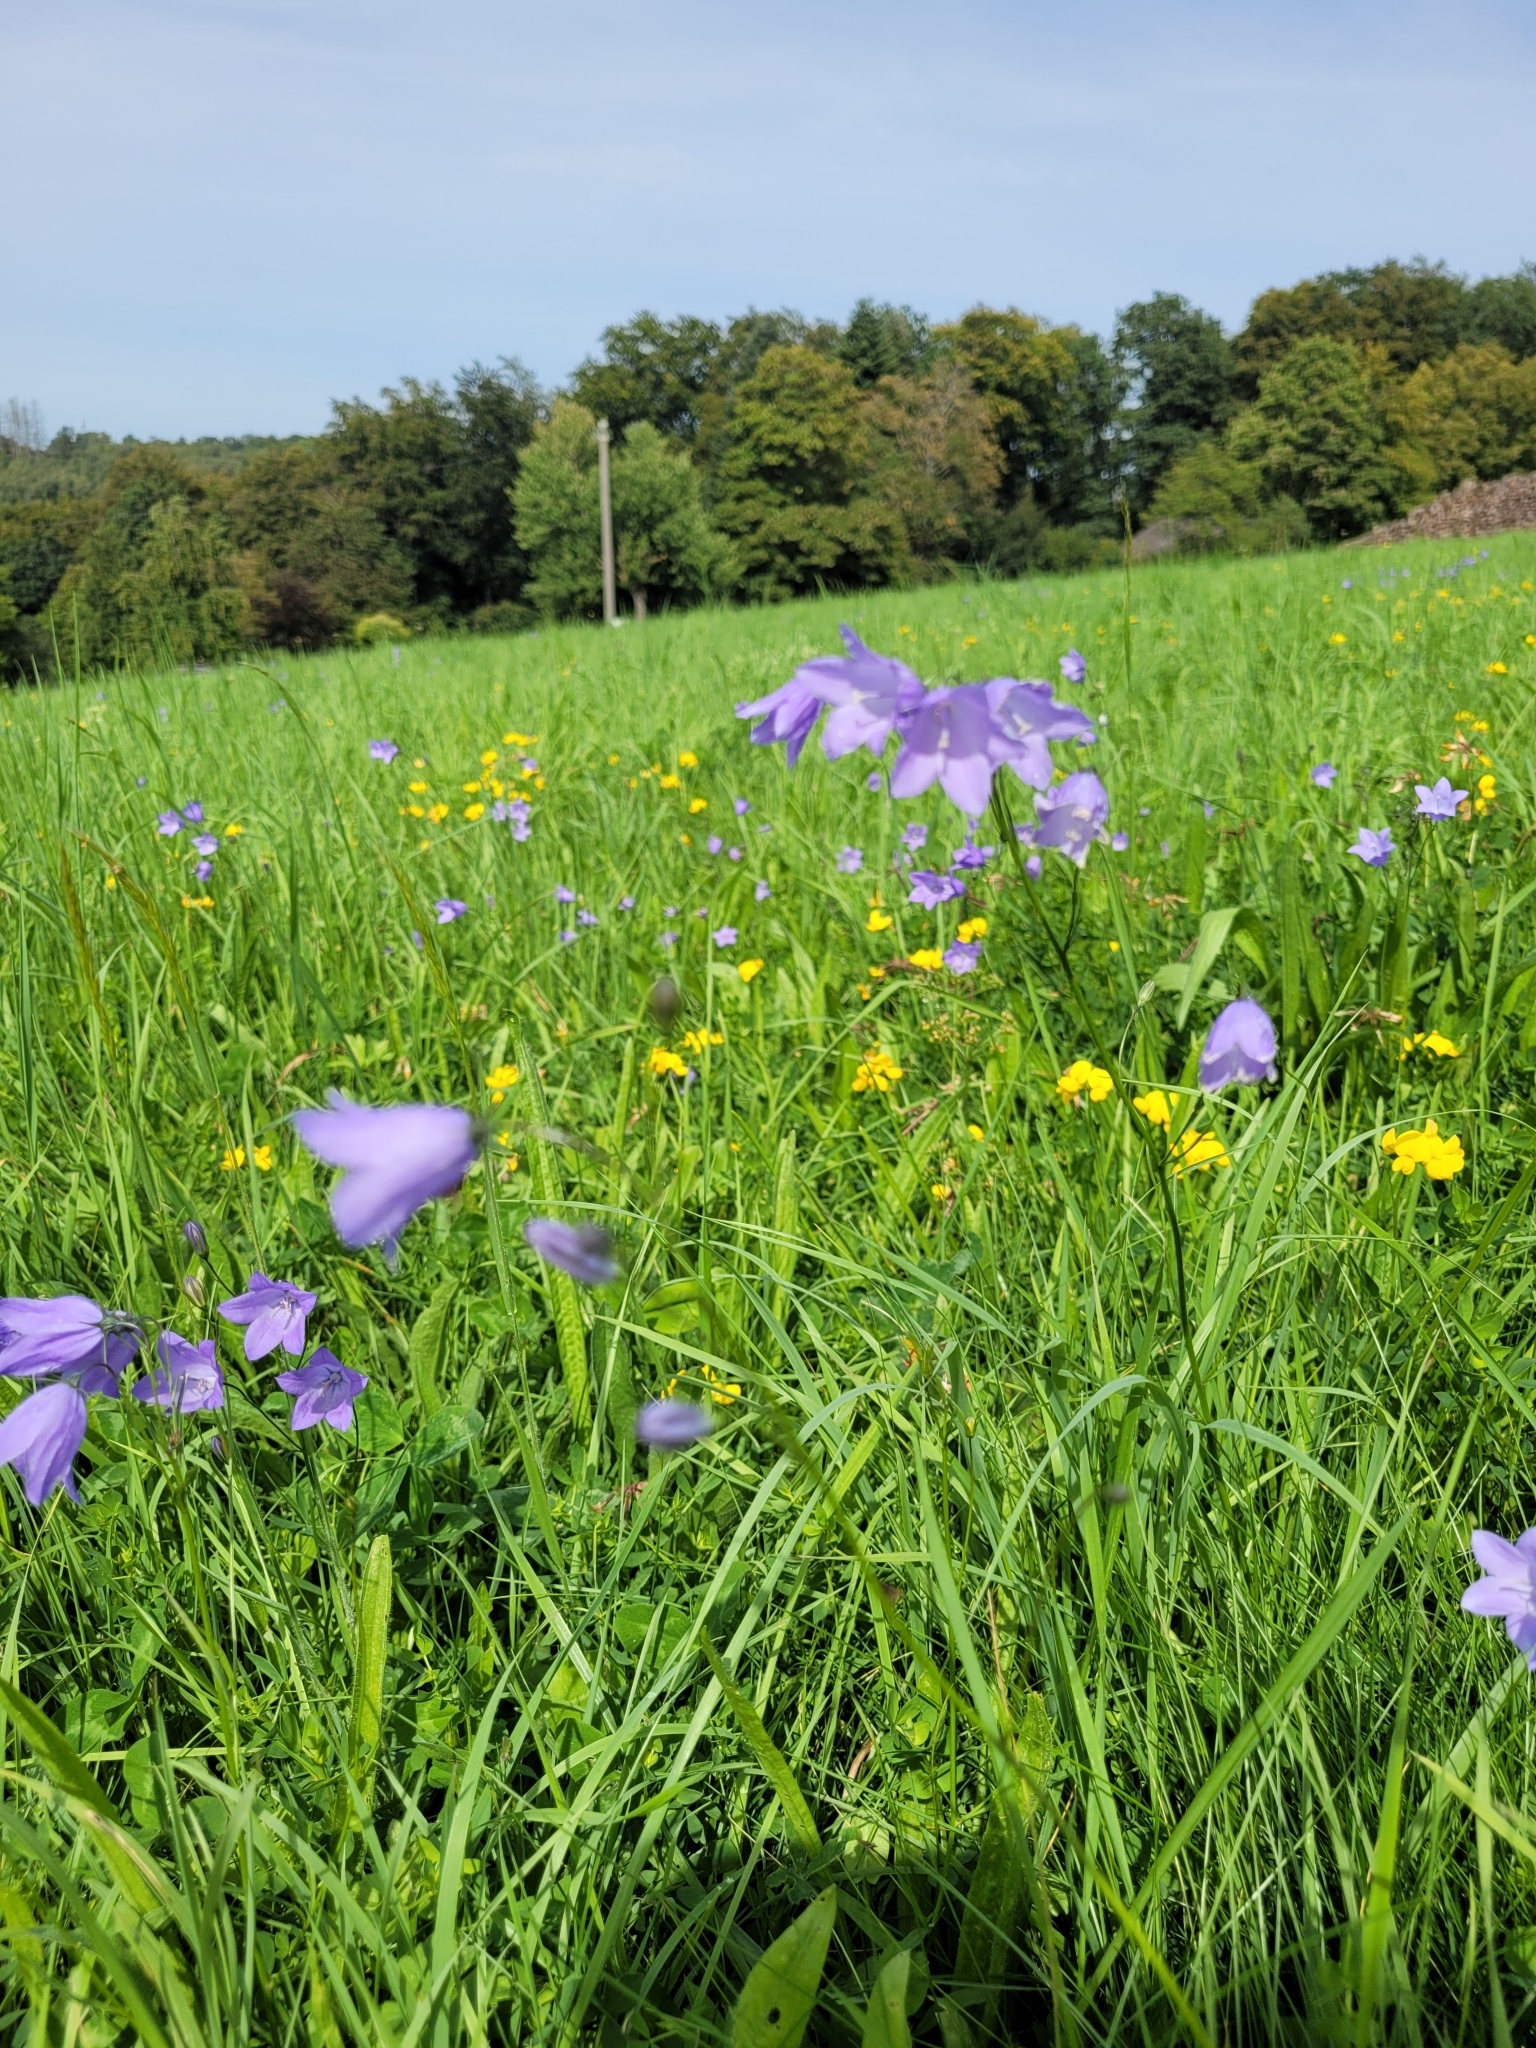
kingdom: Plantae
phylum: Tracheophyta
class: Magnoliopsida
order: Asterales
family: Campanulaceae
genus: Campanula
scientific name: Campanula rotundifolia
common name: Harebell
